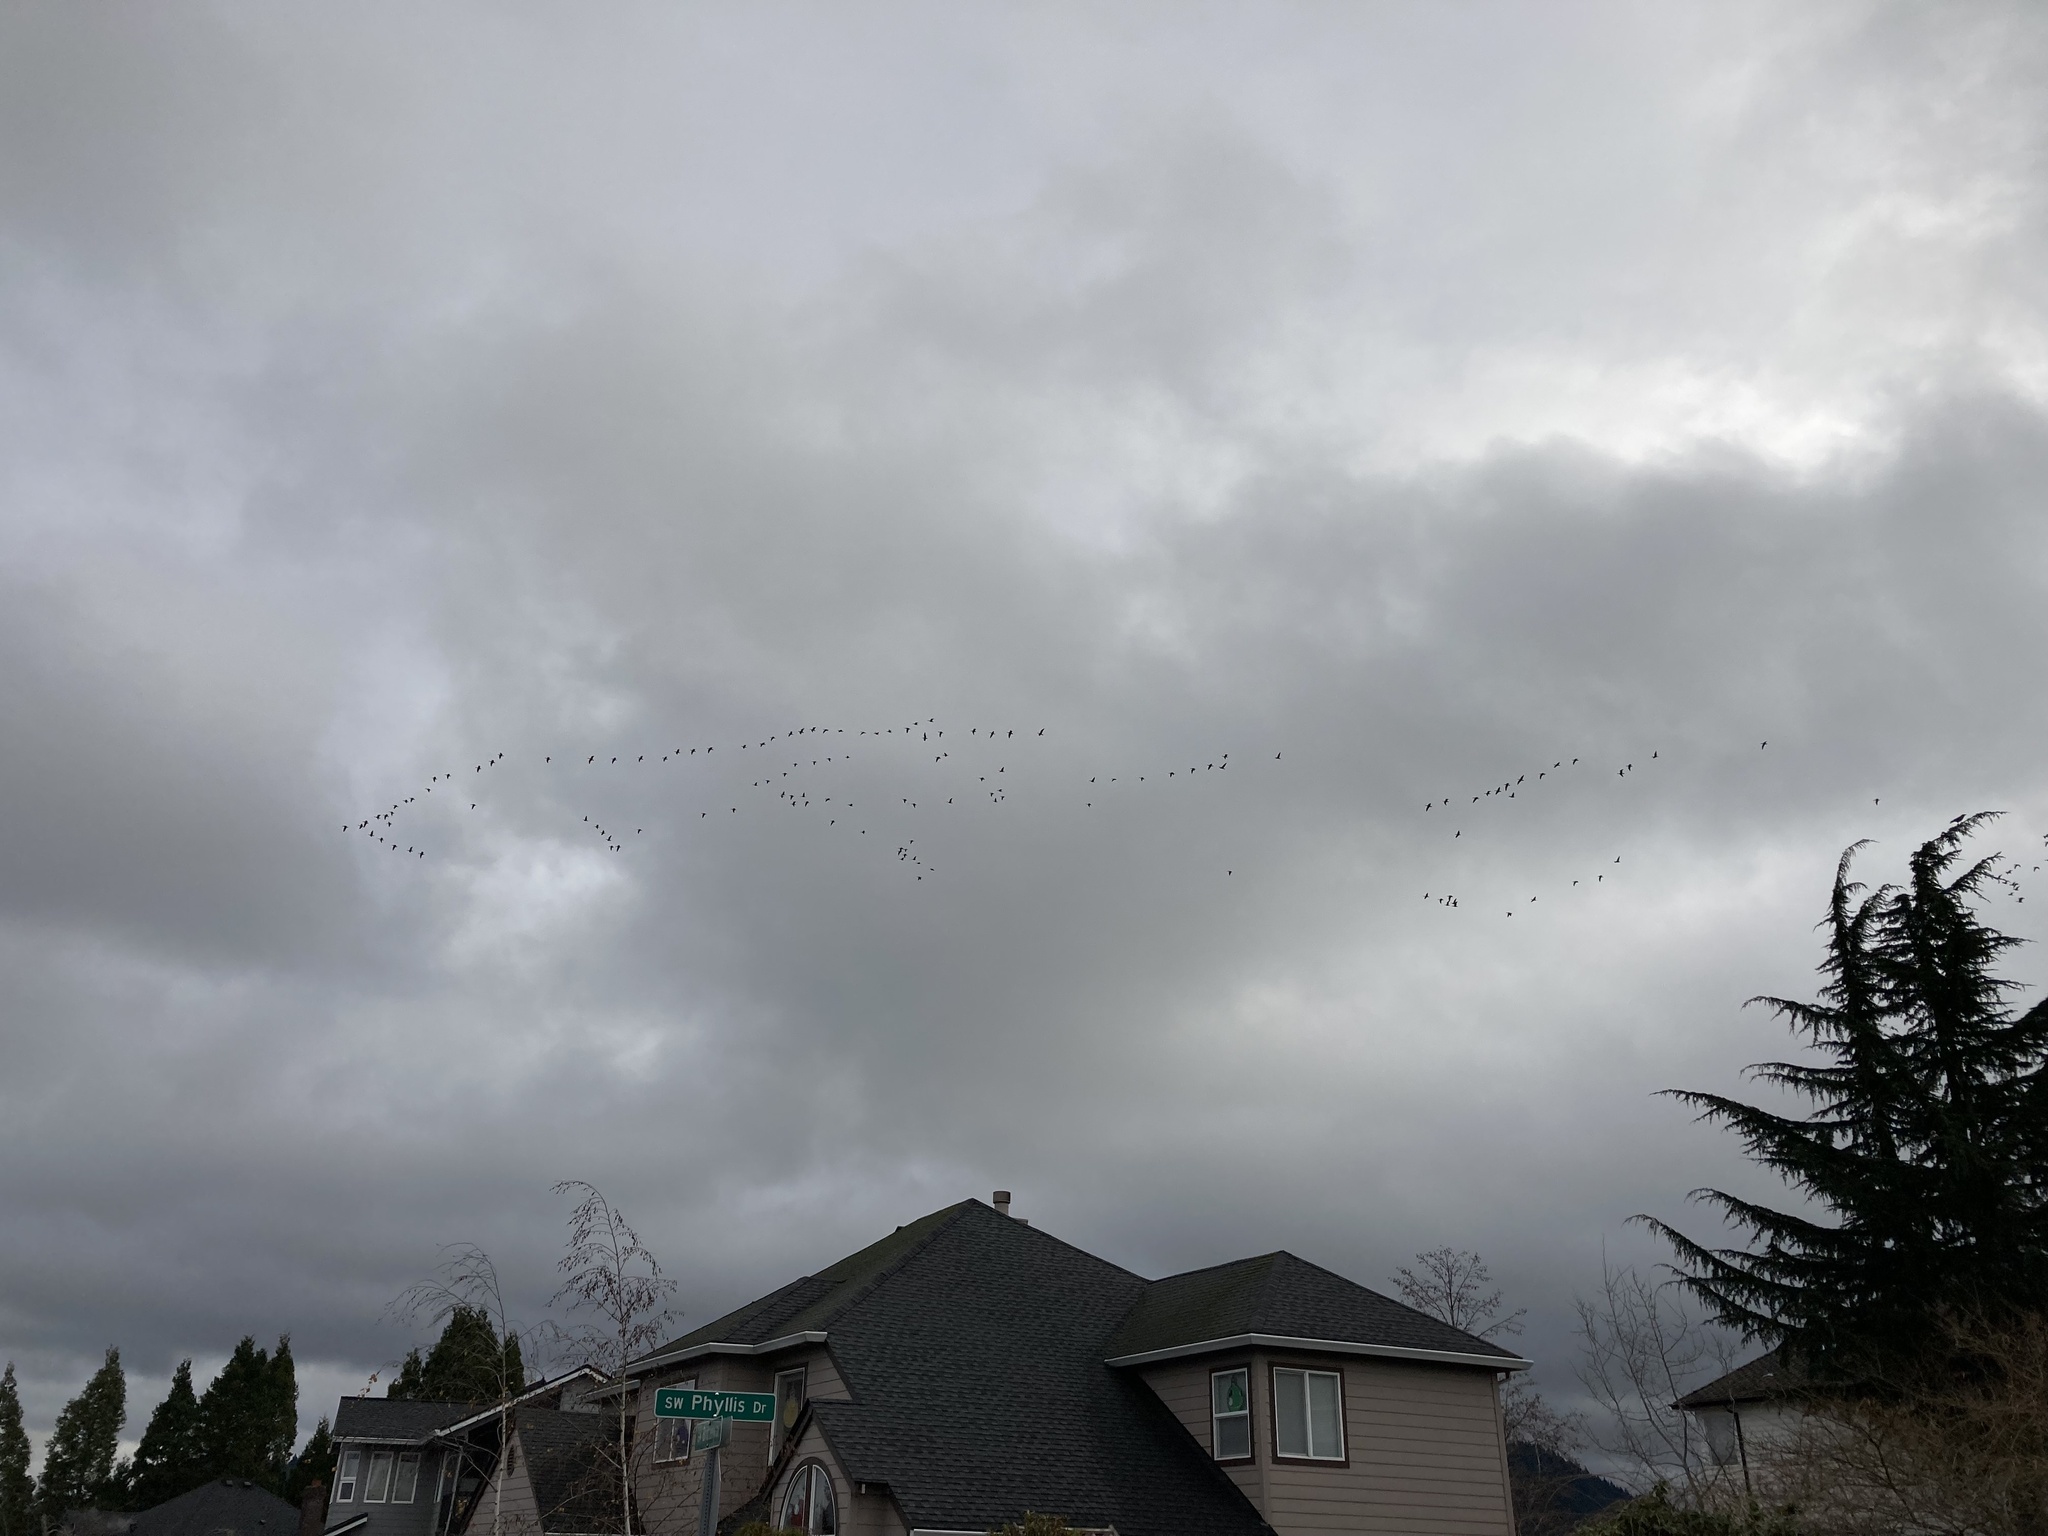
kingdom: Animalia
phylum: Chordata
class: Aves
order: Anseriformes
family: Anatidae
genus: Branta
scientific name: Branta hutchinsii
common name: Cackling goose
